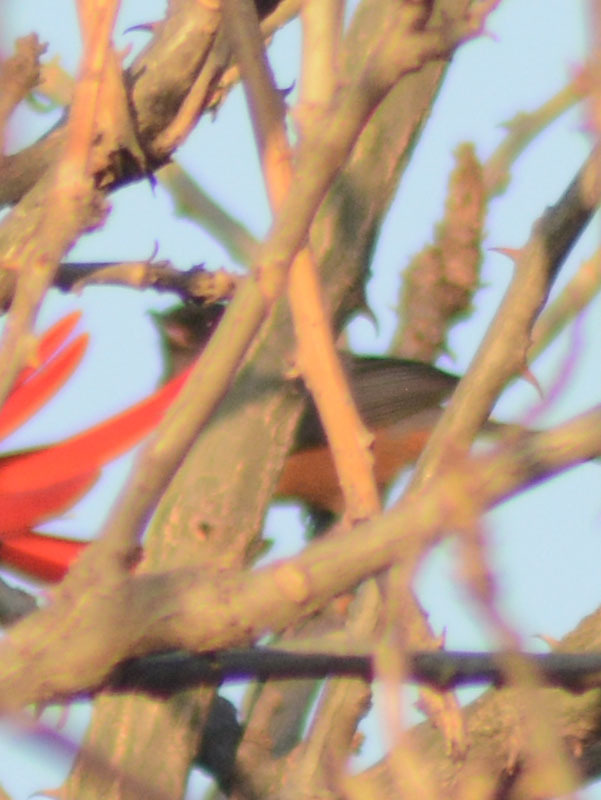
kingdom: Animalia
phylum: Chordata
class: Aves
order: Passeriformes
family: Thraupidae
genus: Diglossa
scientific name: Diglossa baritula
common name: Cinnamon-bellied flowerpiercer
